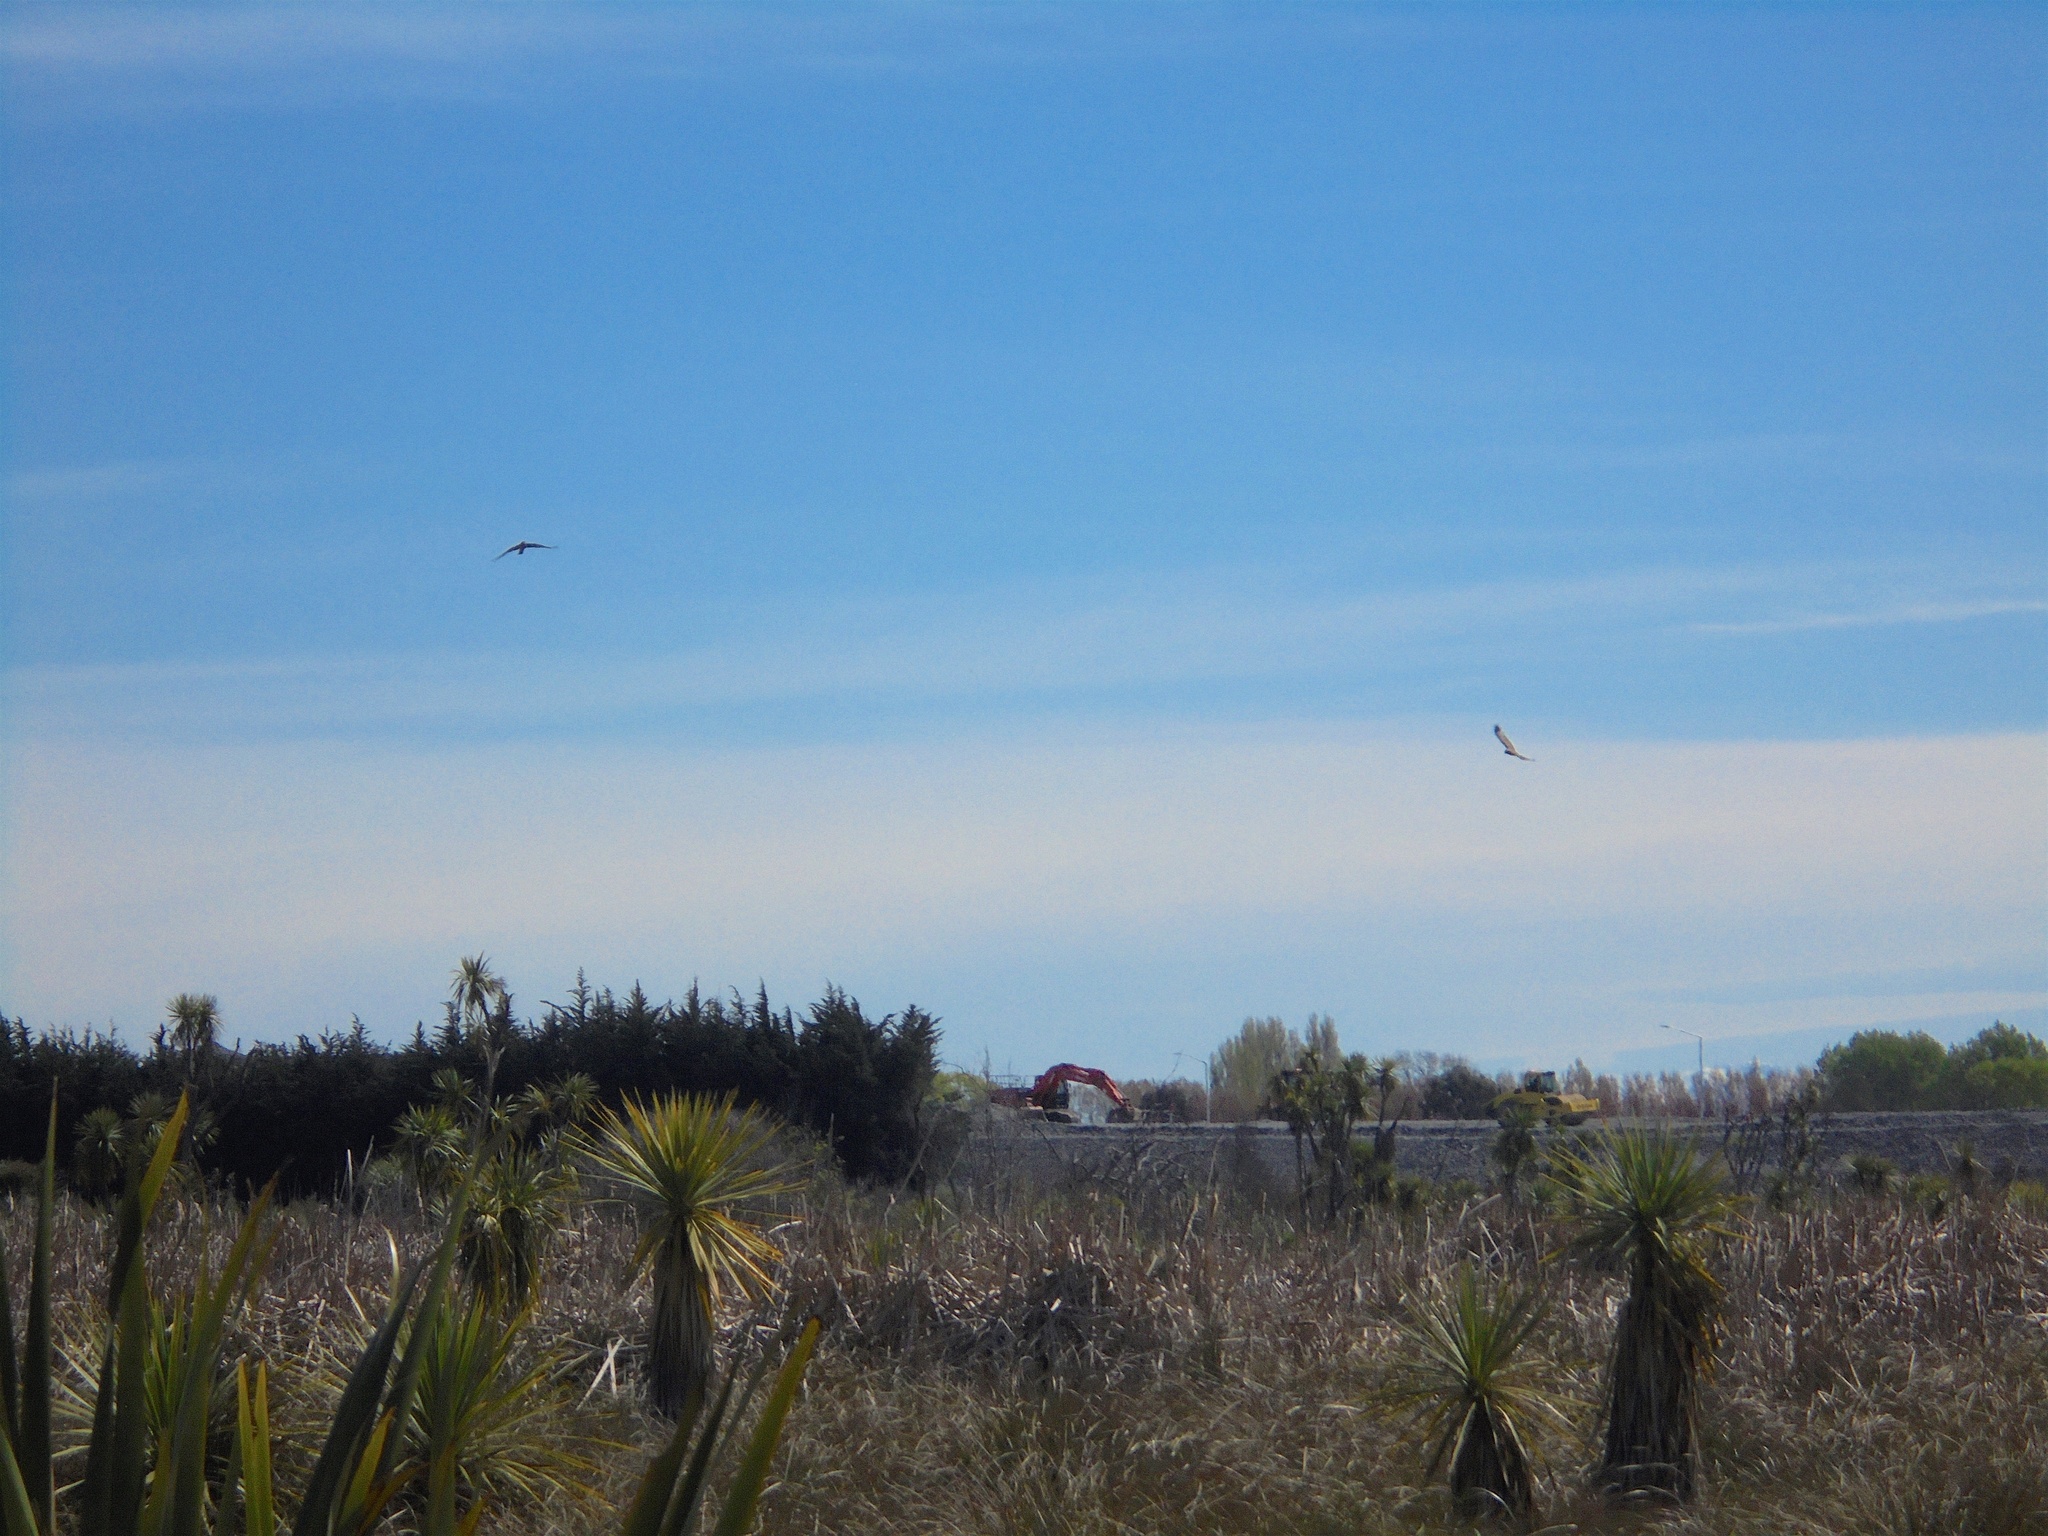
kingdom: Animalia
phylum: Chordata
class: Aves
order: Accipitriformes
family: Accipitridae
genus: Circus
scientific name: Circus approximans
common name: Swamp harrier
